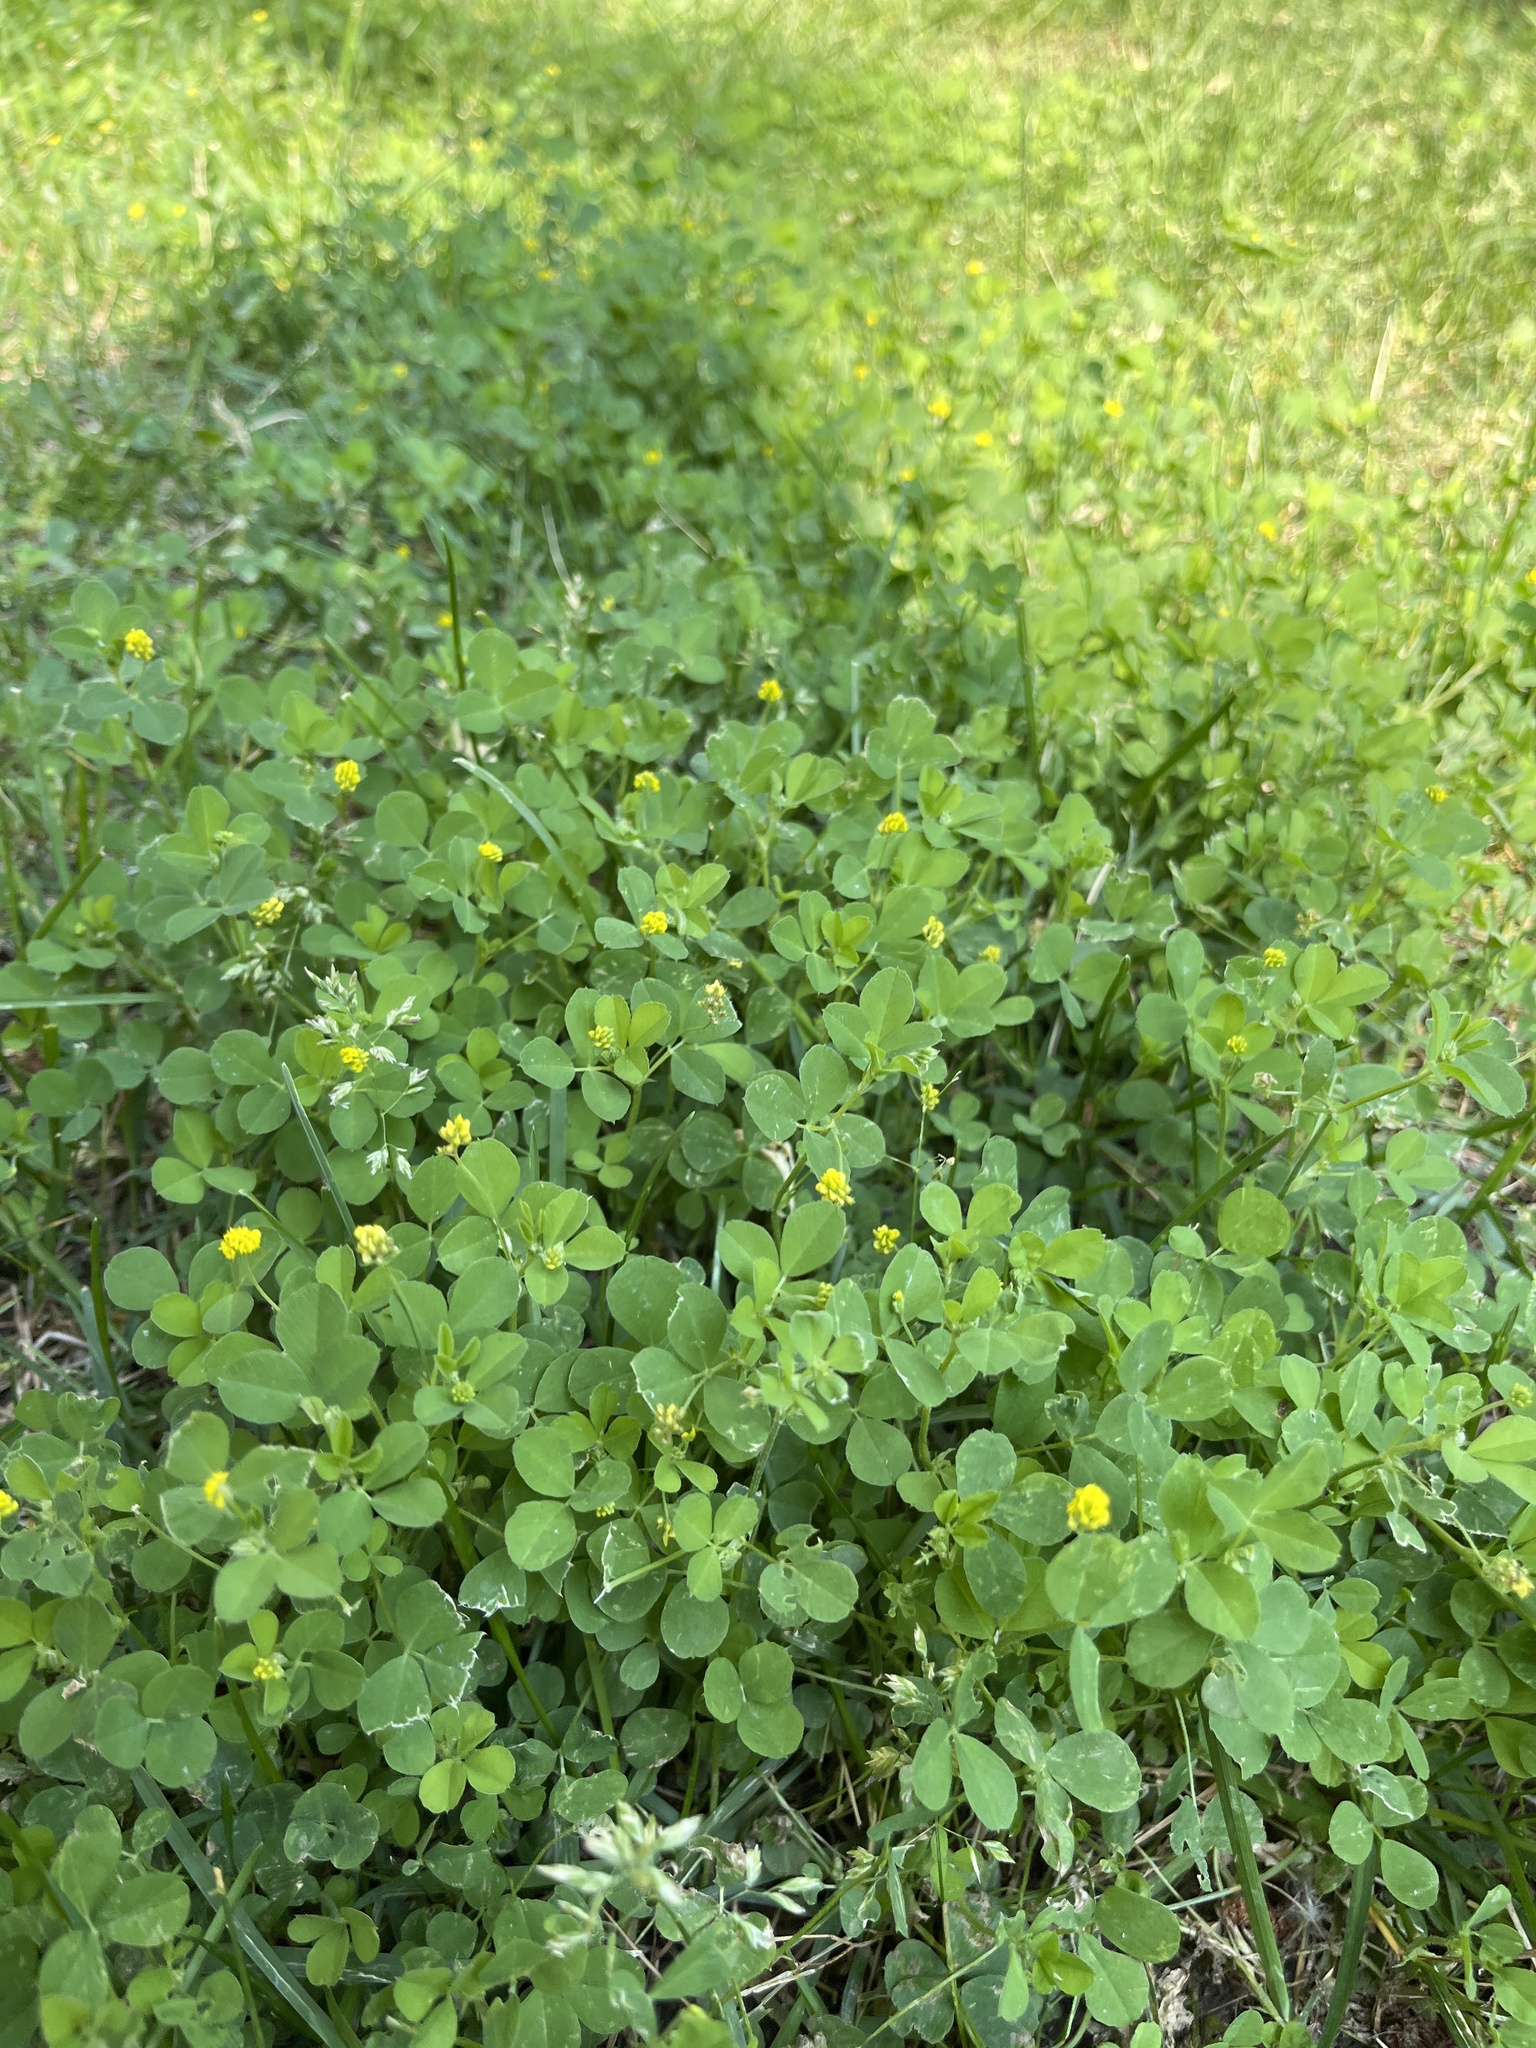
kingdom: Plantae
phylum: Tracheophyta
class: Magnoliopsida
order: Fabales
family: Fabaceae
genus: Medicago
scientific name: Medicago lupulina
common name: Black medick
